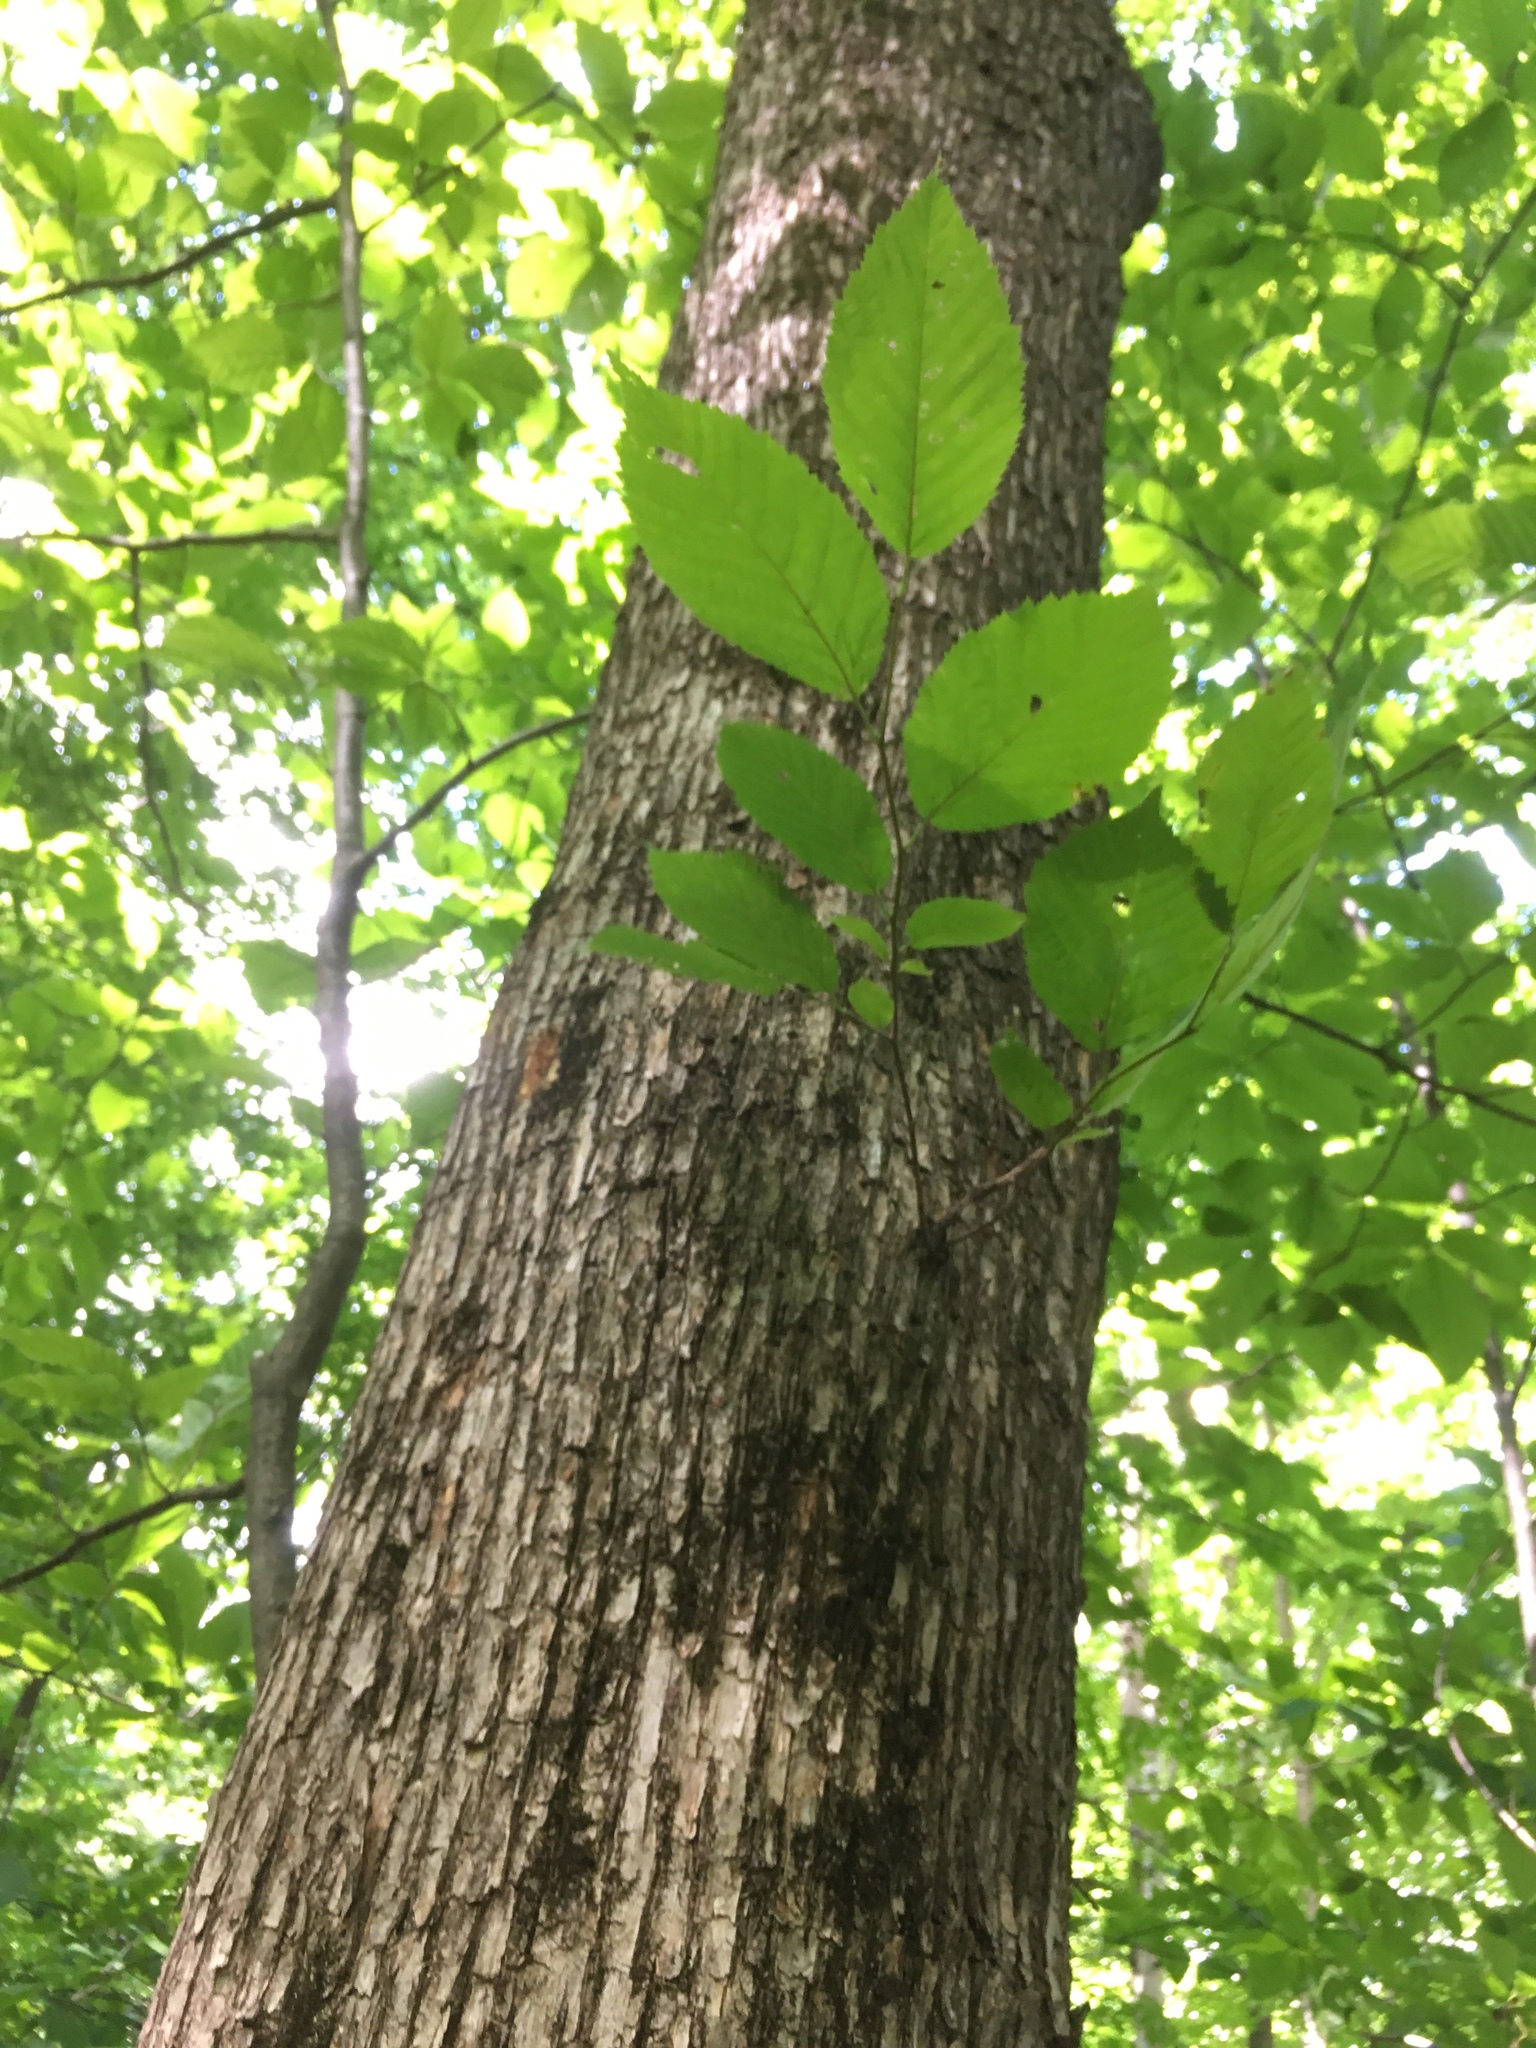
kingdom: Plantae
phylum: Tracheophyta
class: Magnoliopsida
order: Fagales
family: Betulaceae
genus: Ostrya
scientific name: Ostrya virginiana
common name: Ironwood
